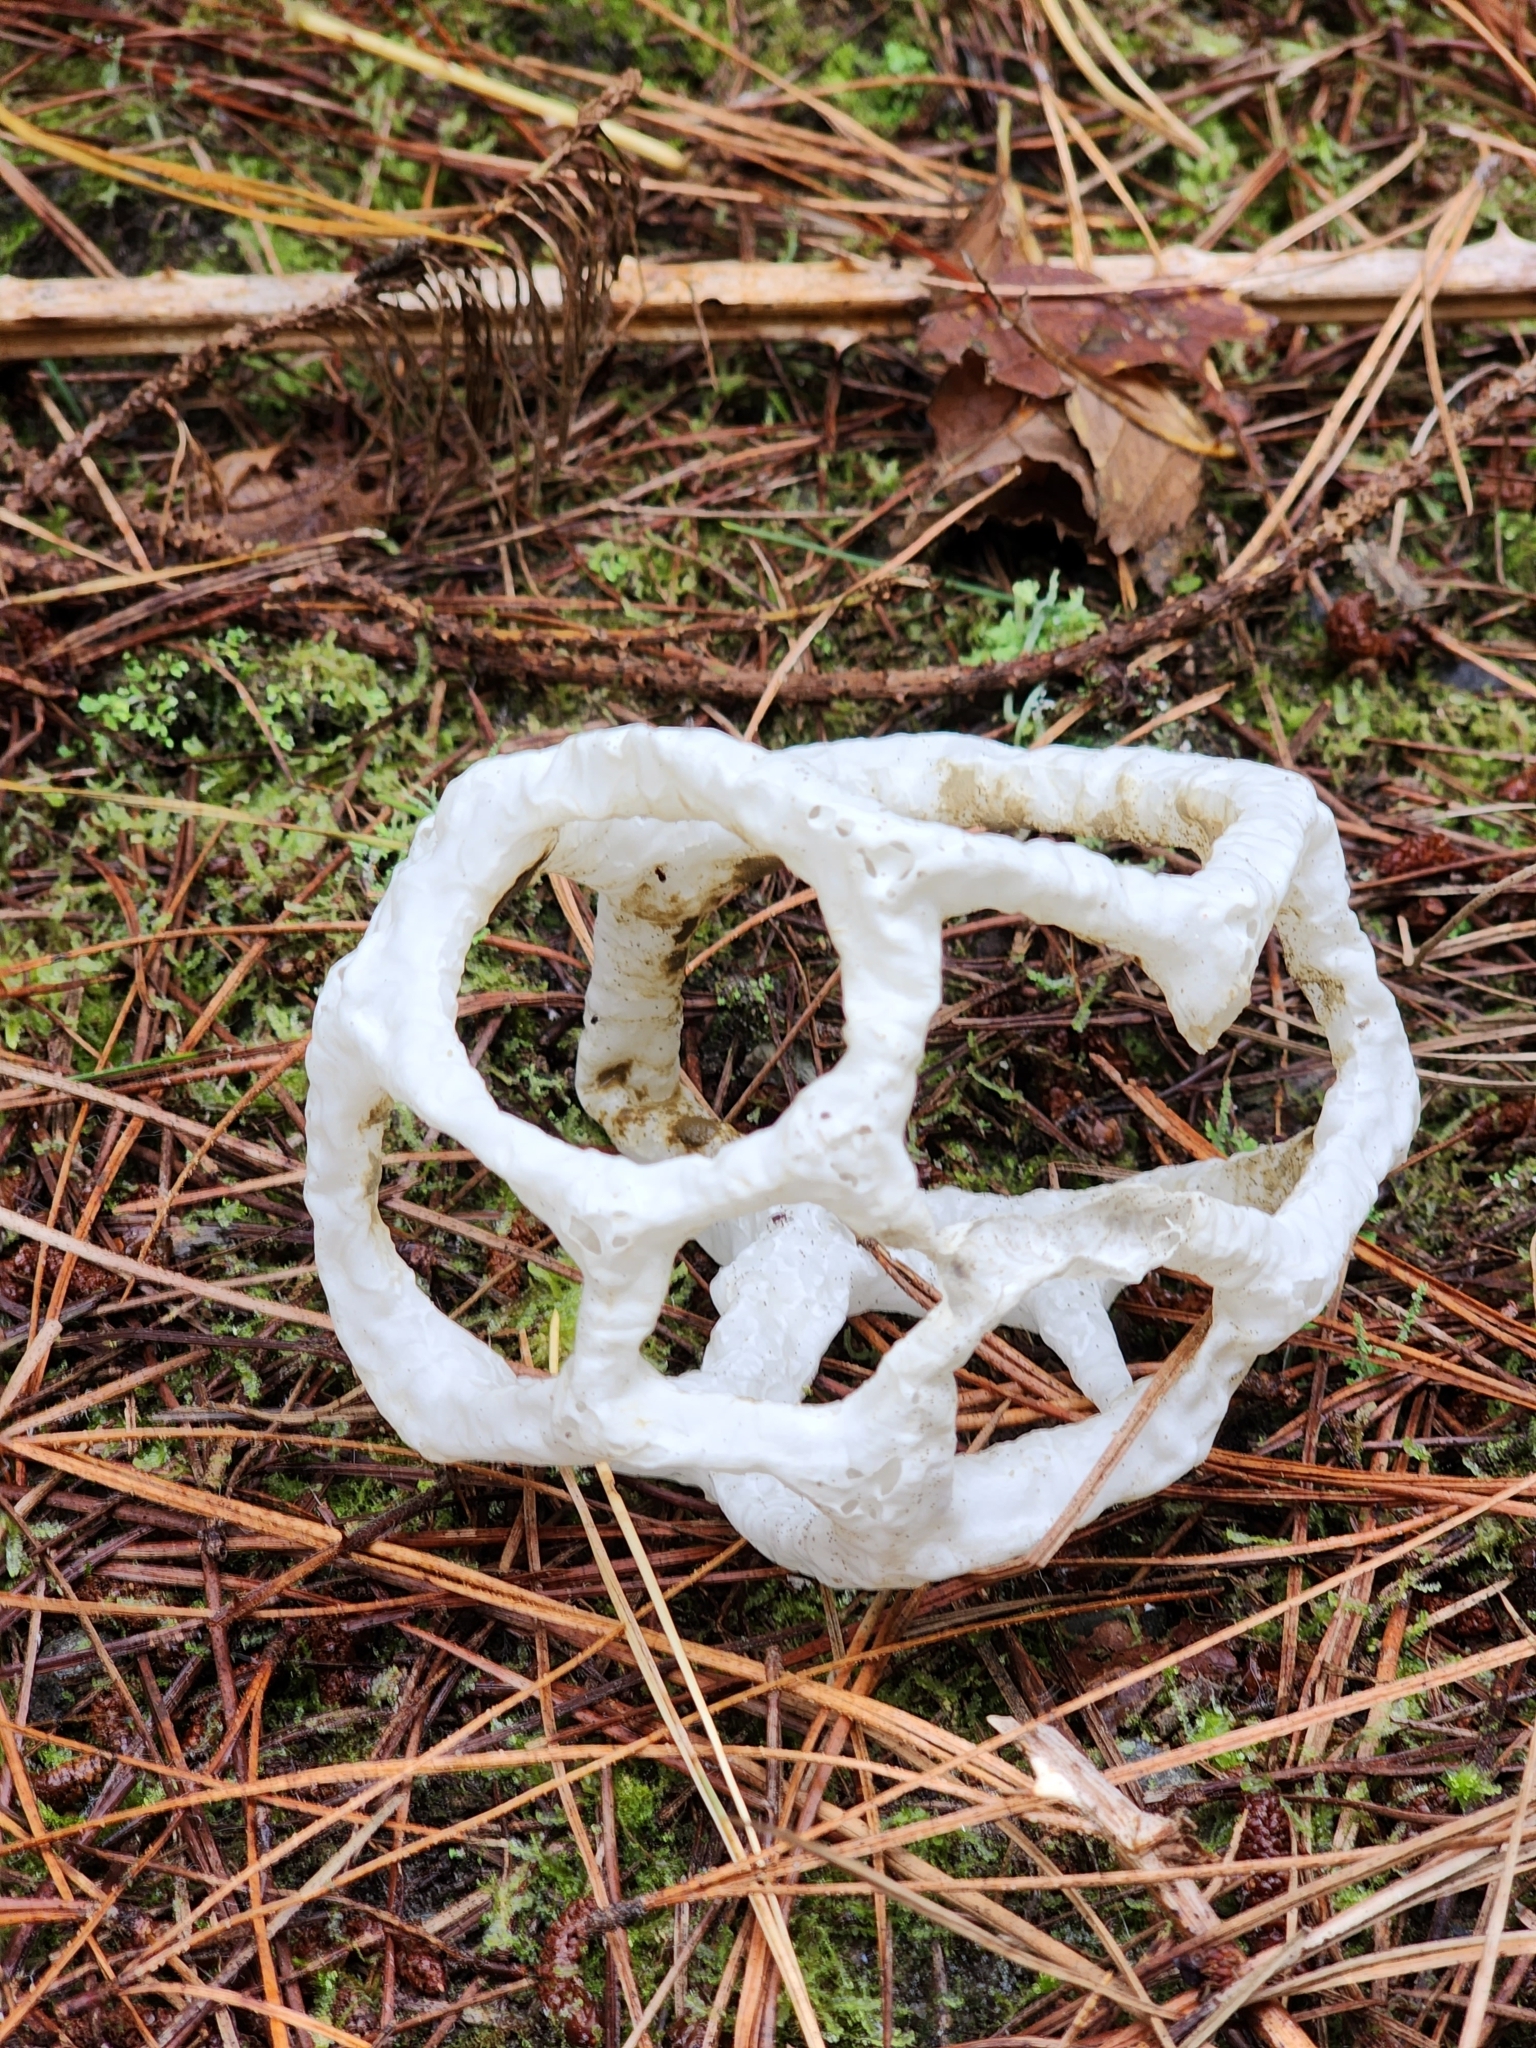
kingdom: Fungi
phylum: Basidiomycota
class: Agaricomycetes
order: Phallales
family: Phallaceae
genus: Ileodictyon
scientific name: Ileodictyon cibarium
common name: Basket fungus
